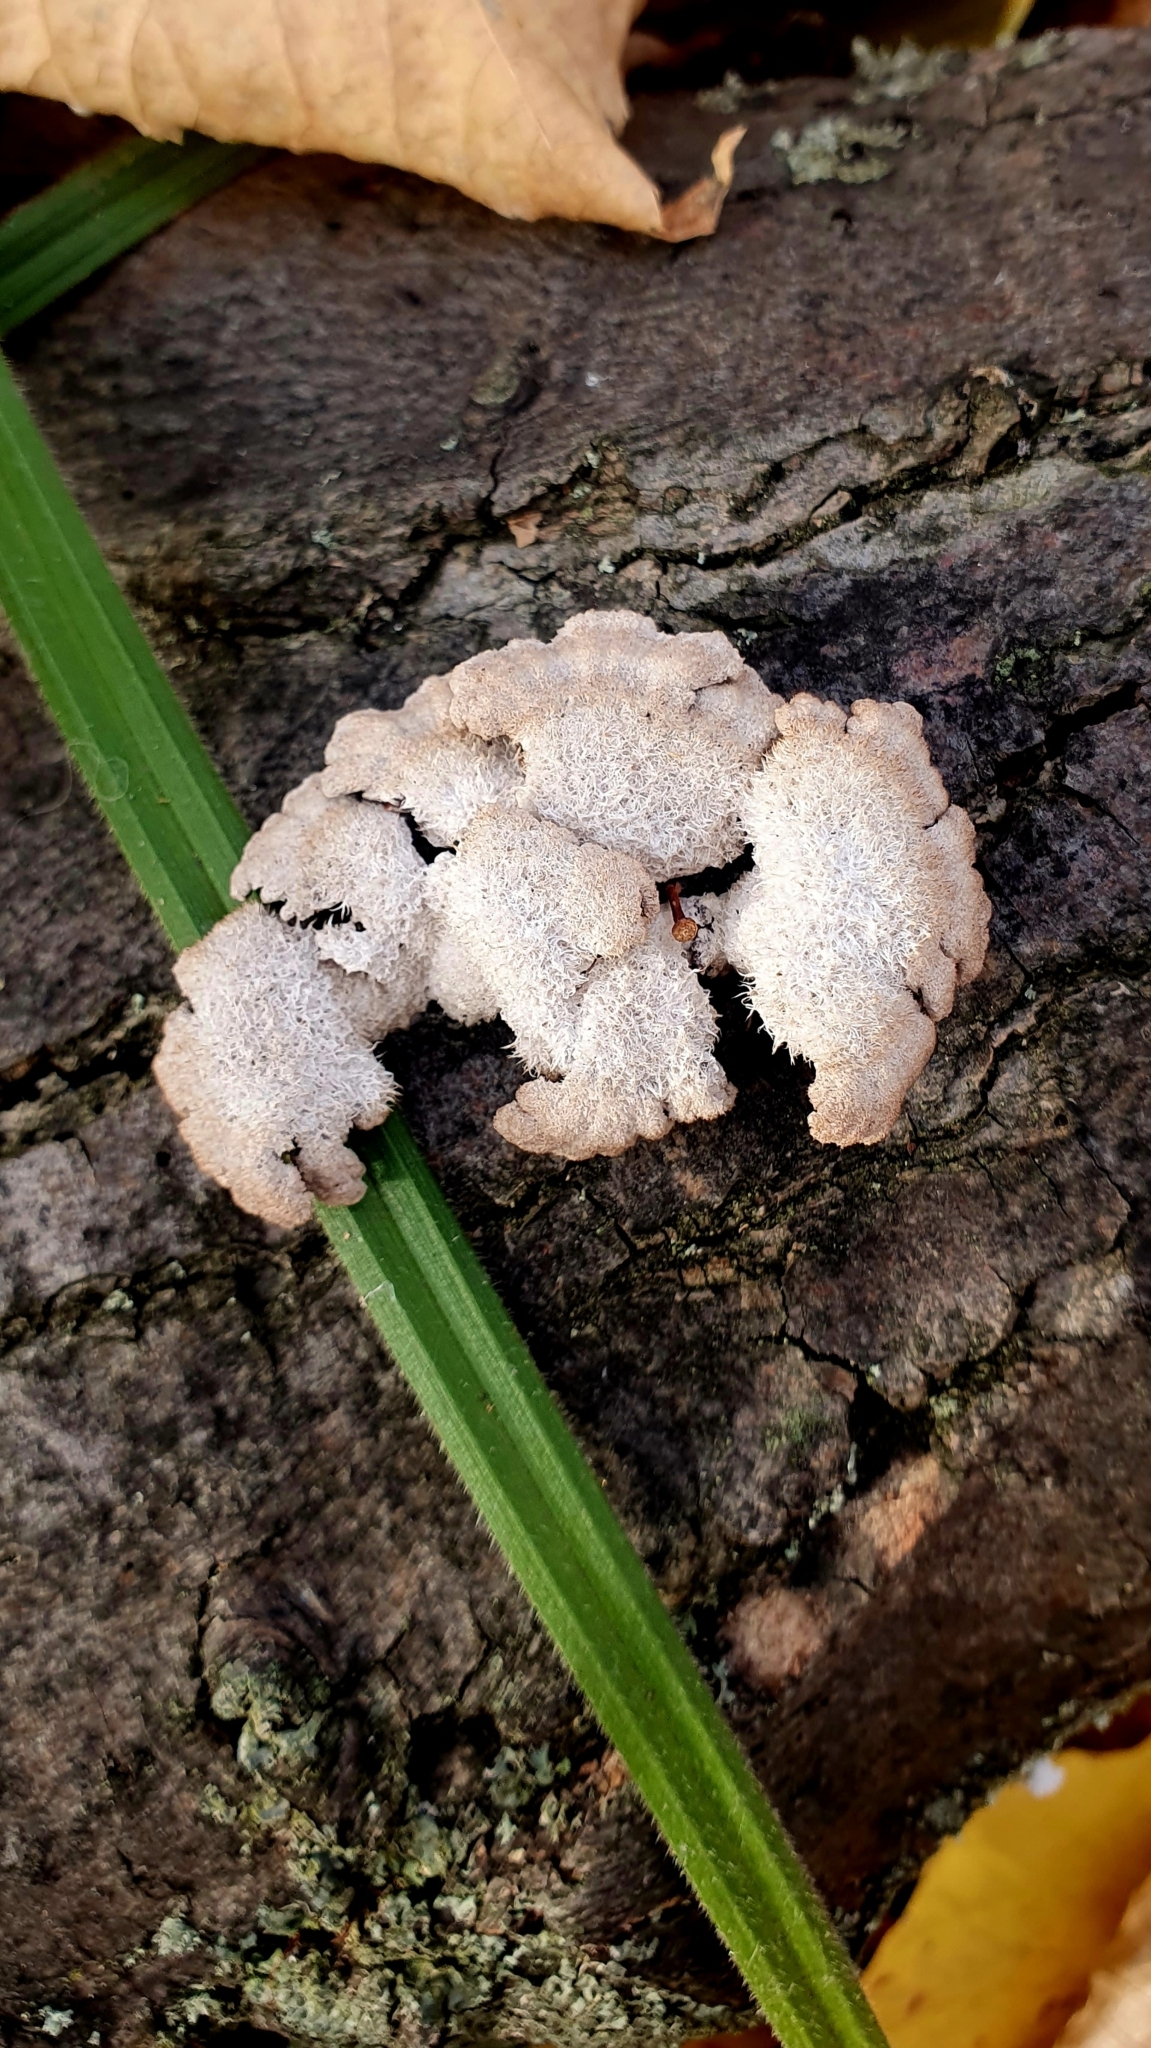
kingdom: Fungi
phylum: Basidiomycota
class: Agaricomycetes
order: Agaricales
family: Schizophyllaceae
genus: Schizophyllum
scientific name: Schizophyllum commune
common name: Common porecrust
